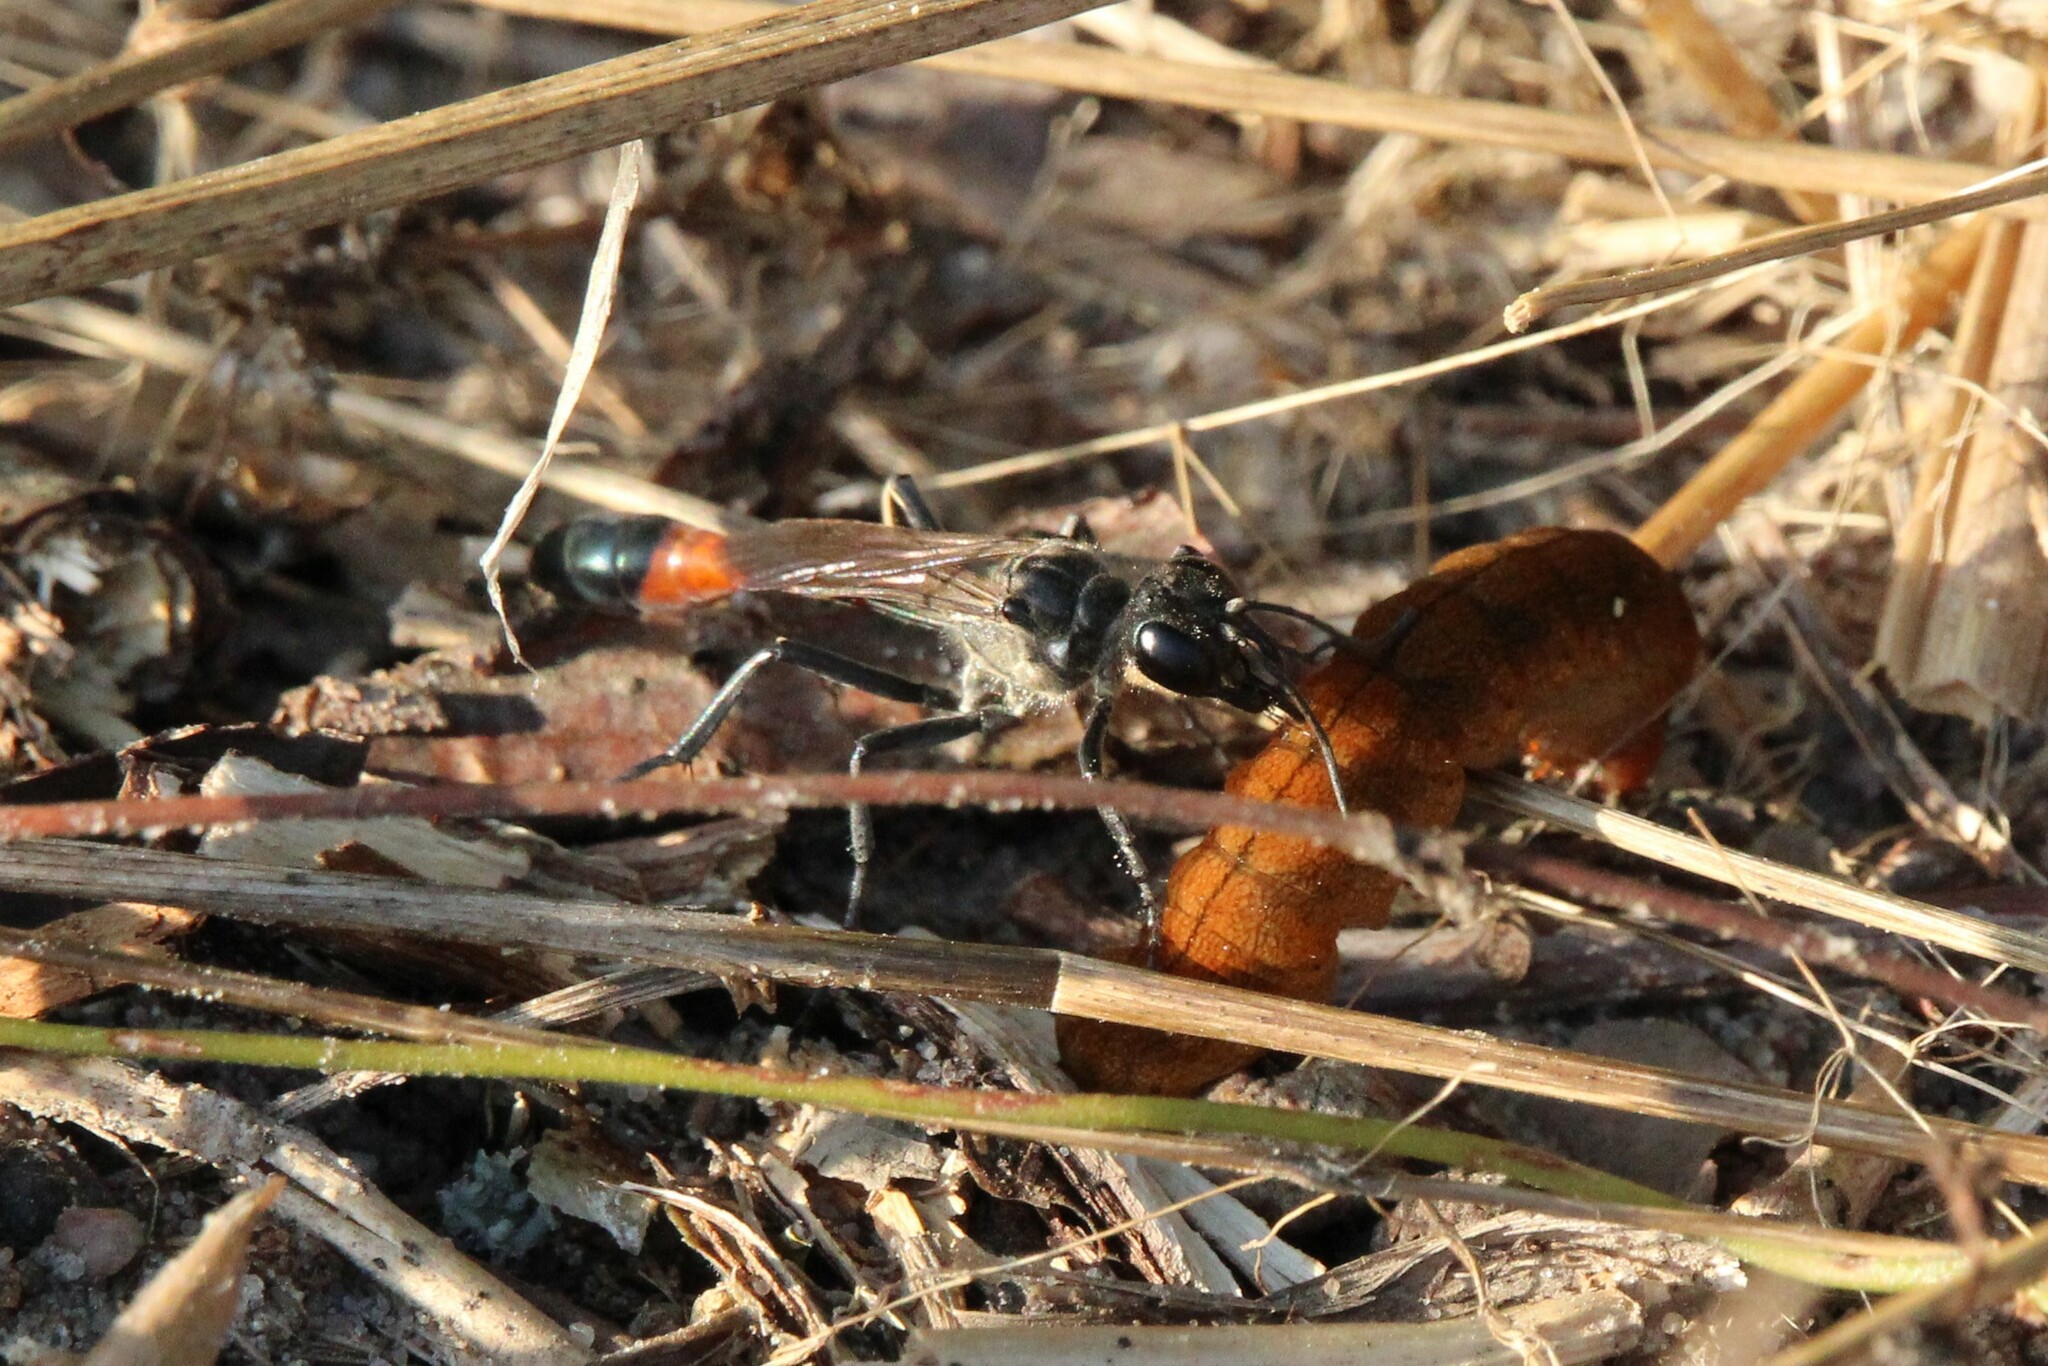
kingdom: Animalia
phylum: Arthropoda
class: Insecta
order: Hymenoptera
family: Sphecidae
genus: Ammophila
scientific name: Ammophila sabulosa
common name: Red banded sand wasp
